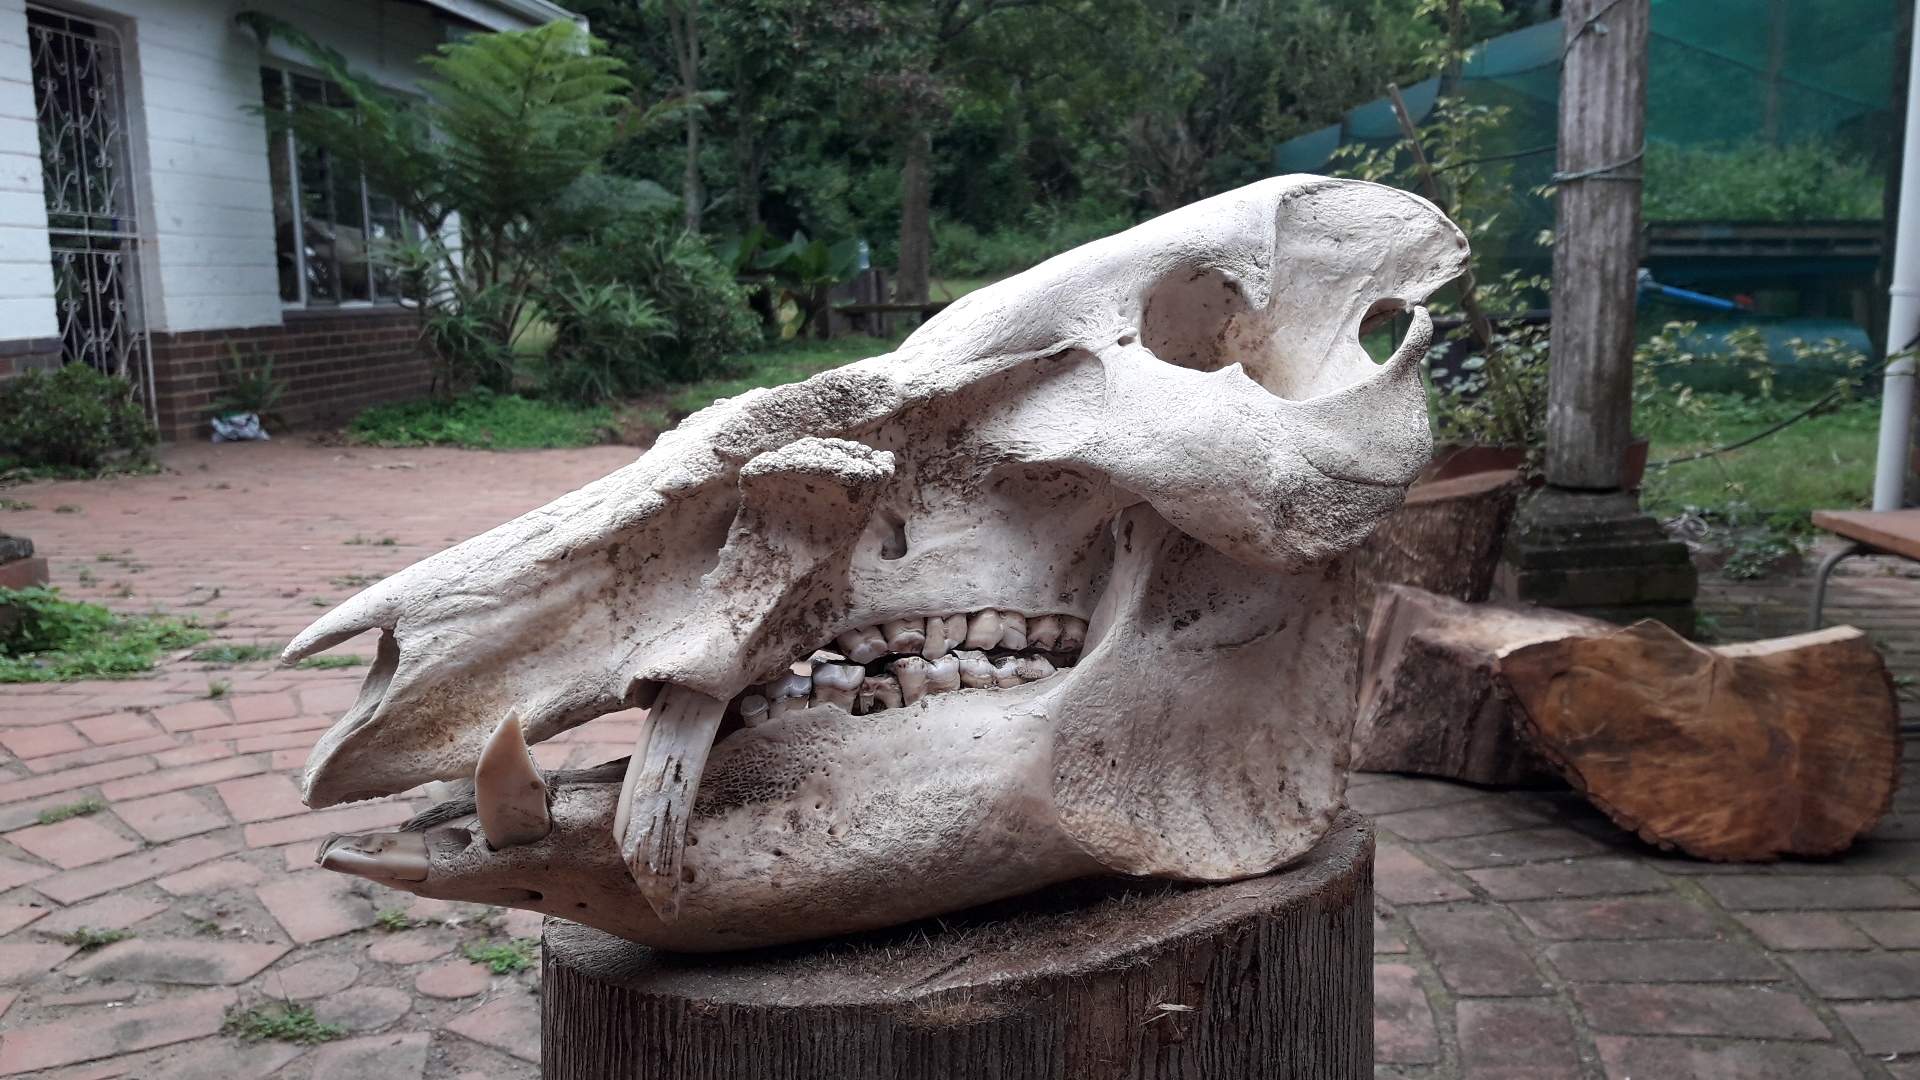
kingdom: Animalia
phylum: Chordata
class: Mammalia
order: Artiodactyla
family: Suidae
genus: Potamochoerus
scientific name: Potamochoerus larvatus
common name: Bushpig
